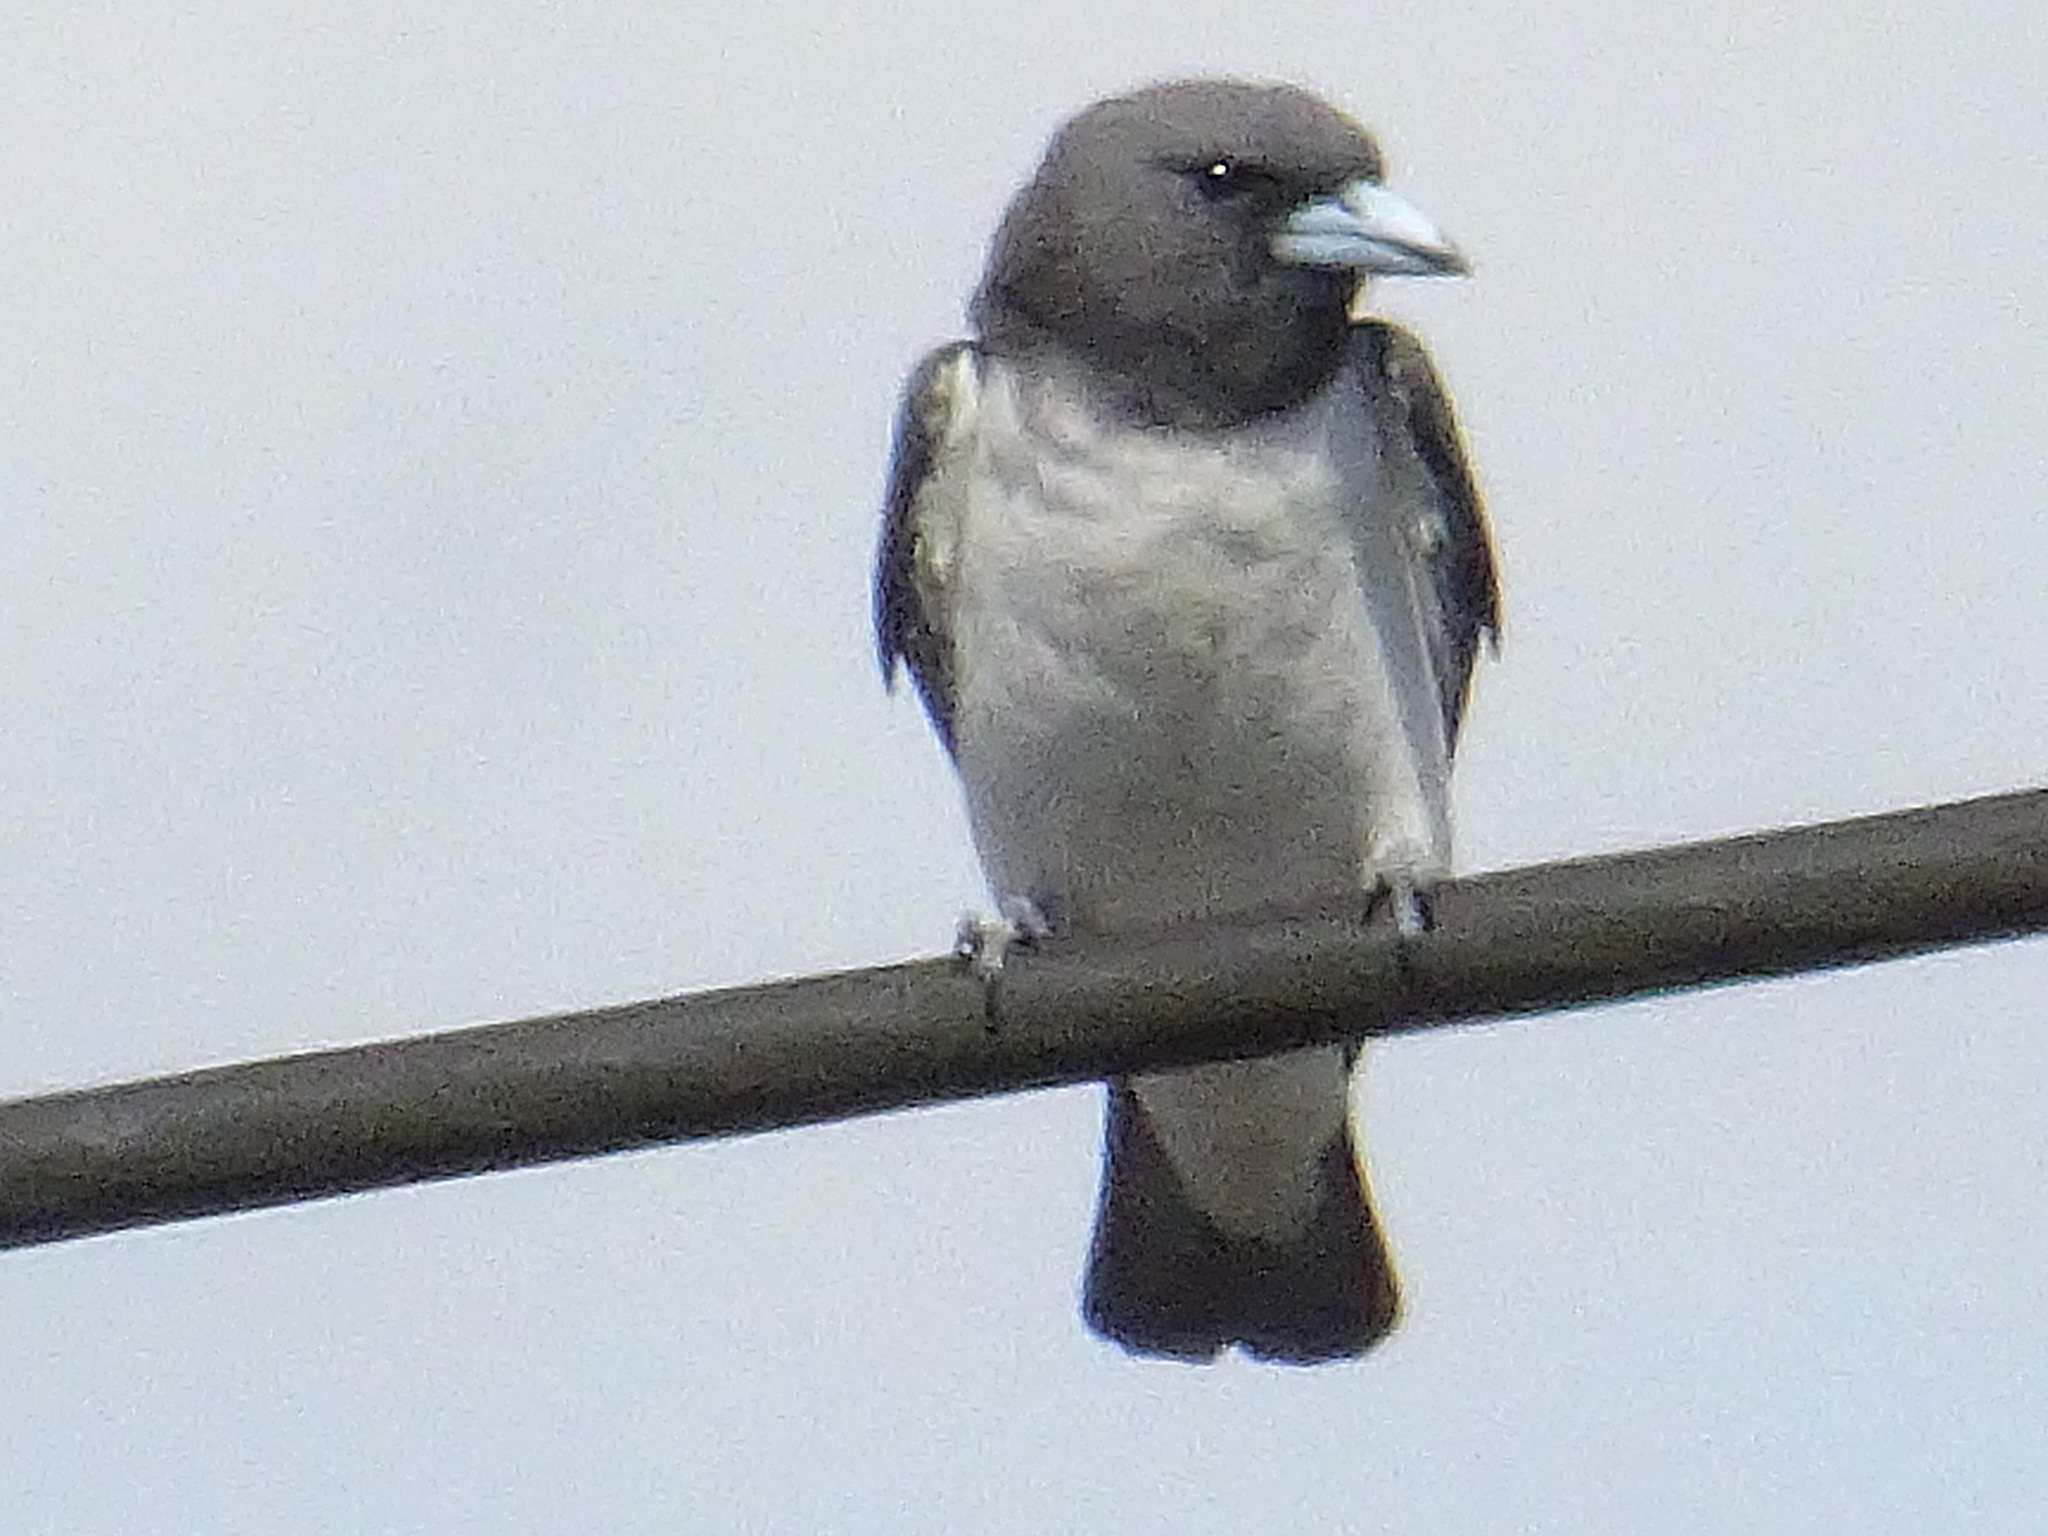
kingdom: Animalia
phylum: Chordata
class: Aves
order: Passeriformes
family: Artamidae
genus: Artamus
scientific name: Artamus leucoryn
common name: White-breasted woodswallow
